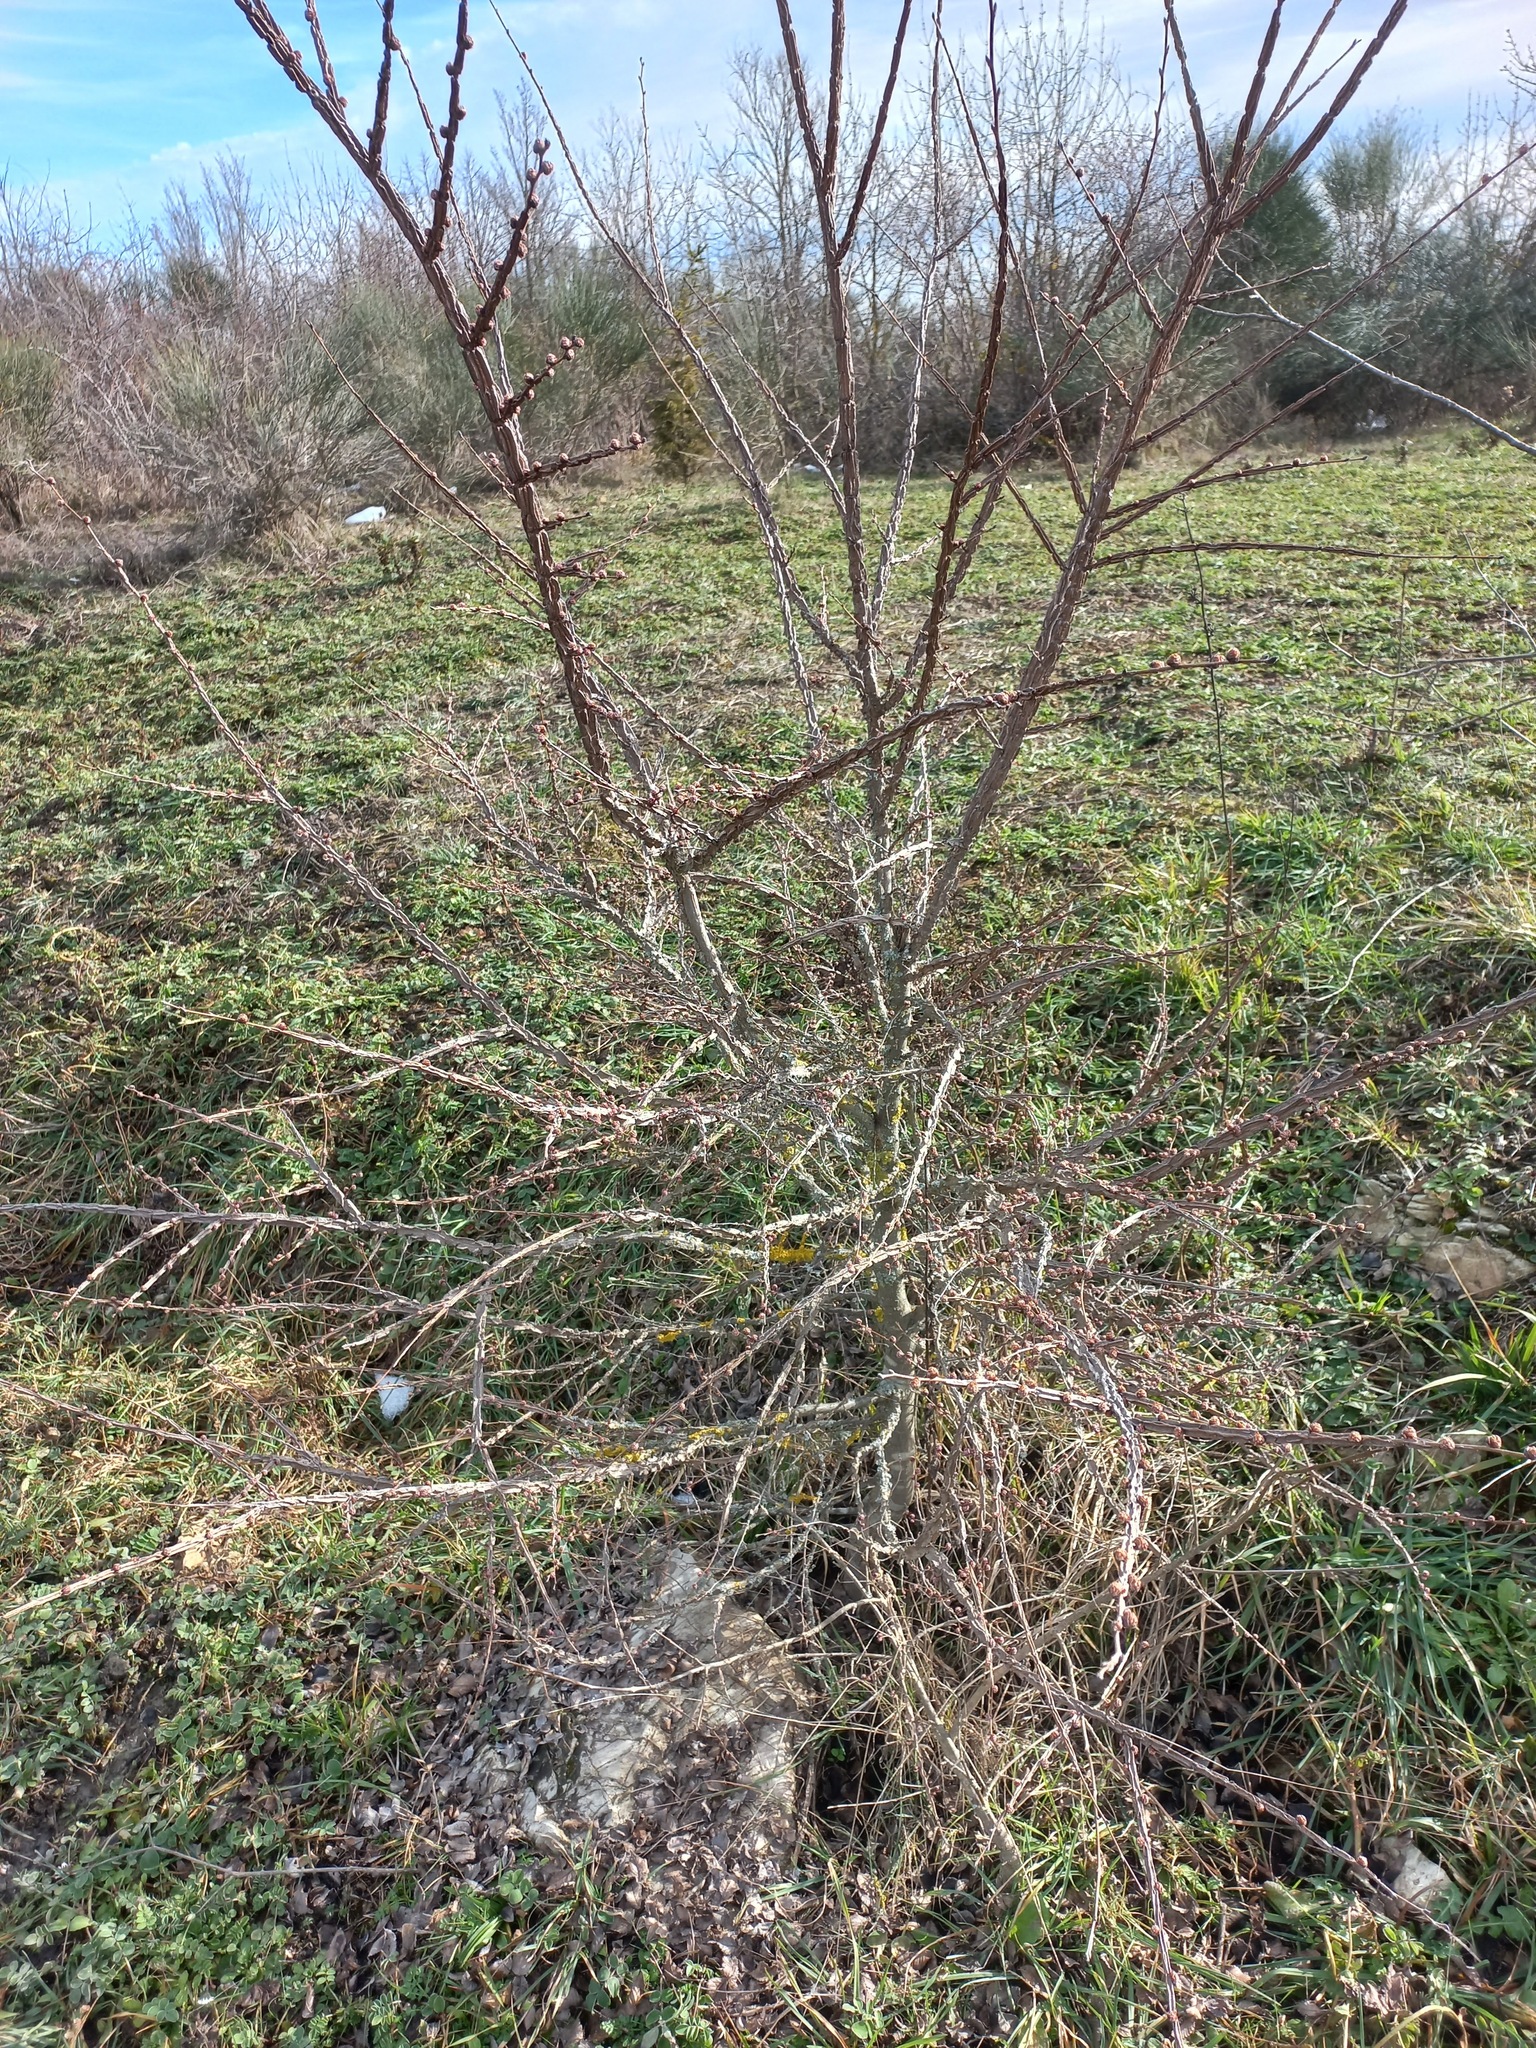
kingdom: Plantae
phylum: Tracheophyta
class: Magnoliopsida
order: Rosales
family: Ulmaceae
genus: Ulmus
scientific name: Ulmus minor
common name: Small-leaved elm
